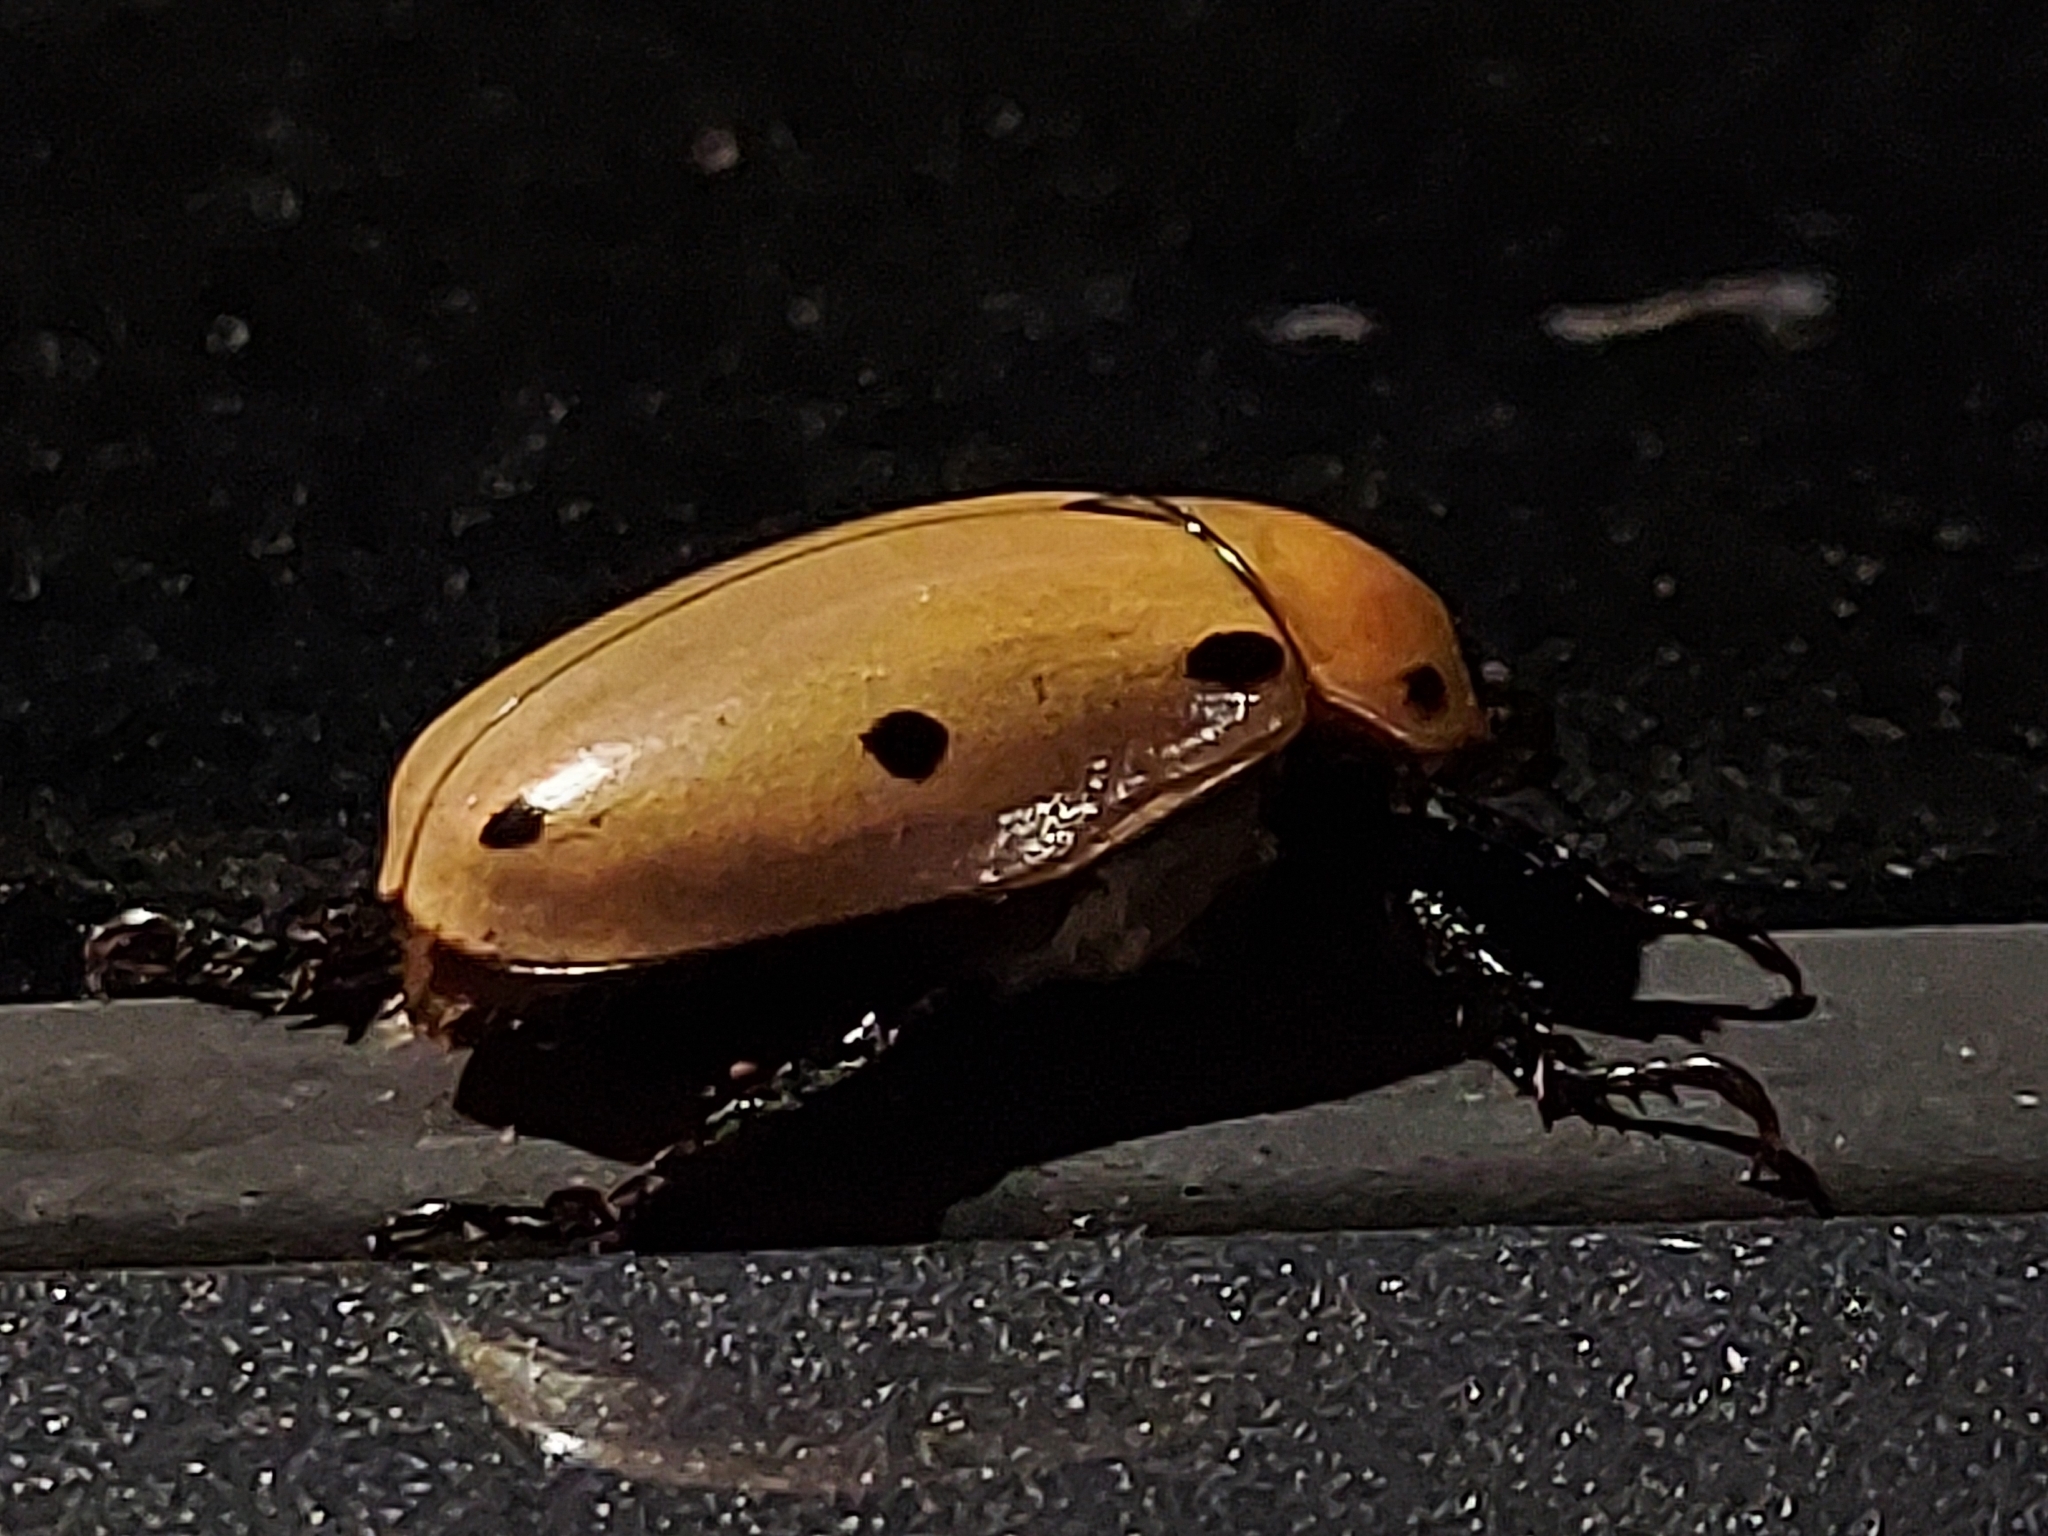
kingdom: Animalia
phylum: Arthropoda
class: Insecta
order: Coleoptera
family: Scarabaeidae
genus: Pelidnota
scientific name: Pelidnota punctata
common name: Grapevine beetle
